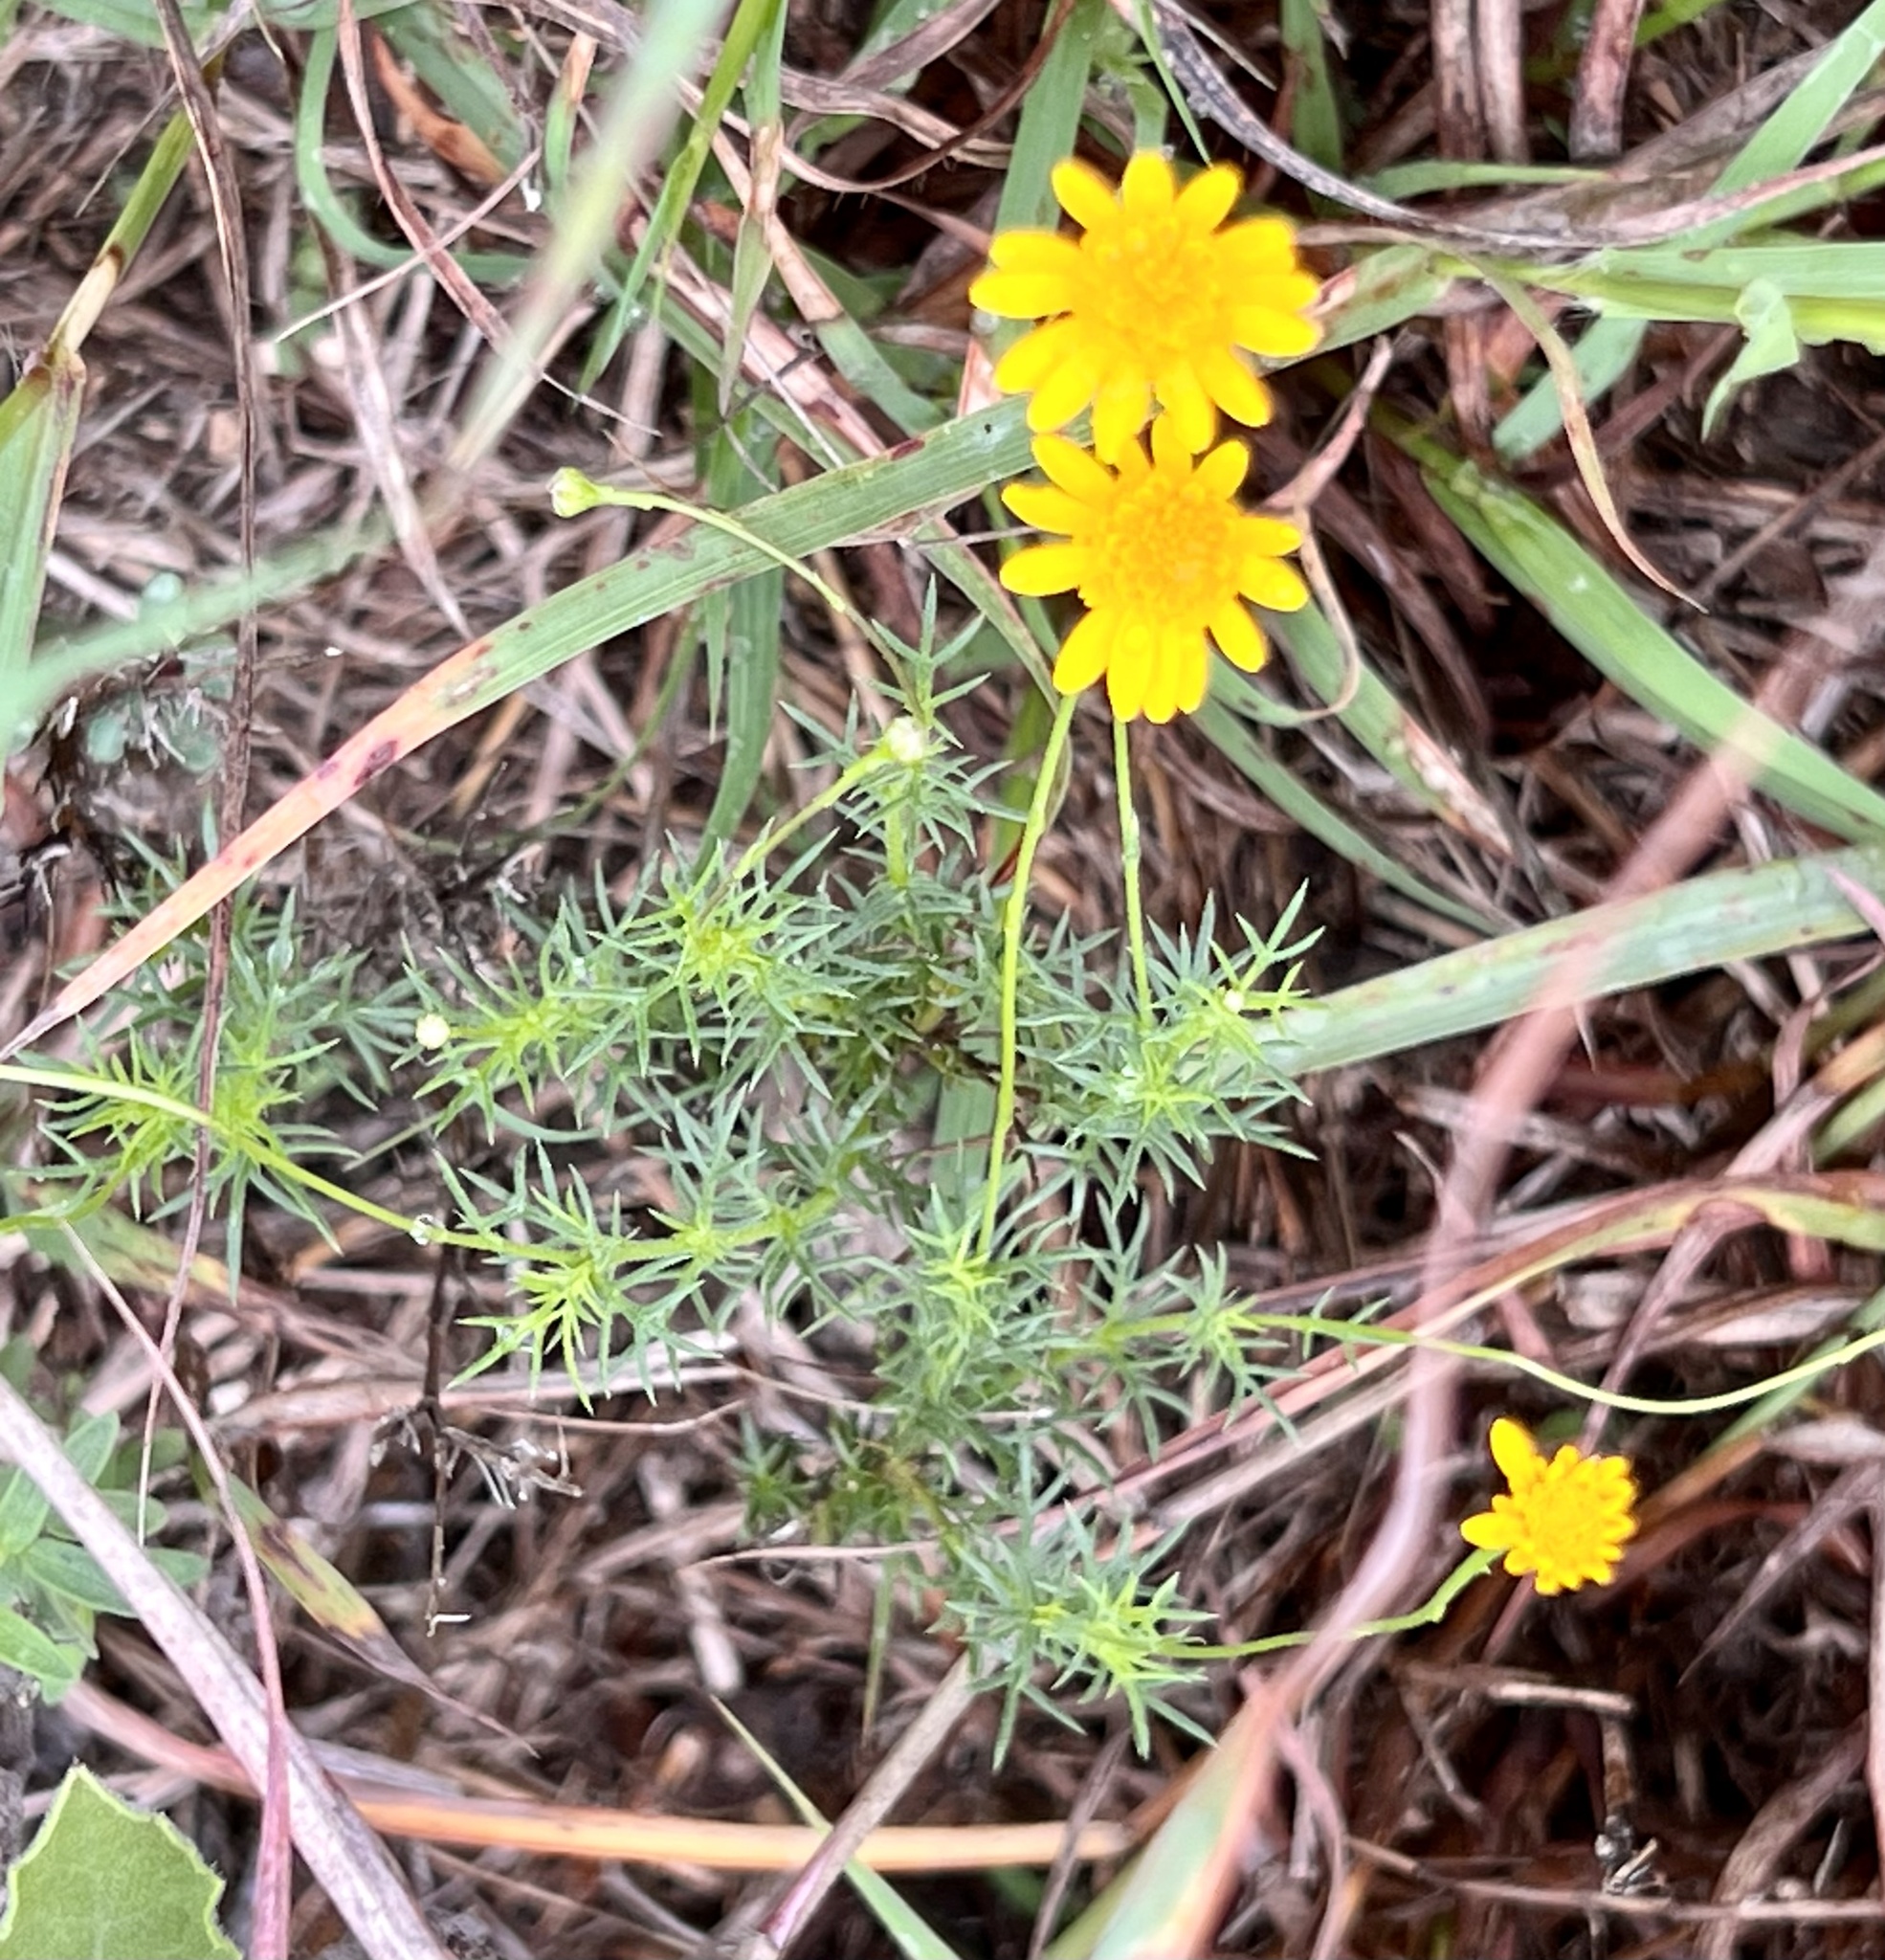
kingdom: Plantae
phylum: Tracheophyta
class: Magnoliopsida
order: Asterales
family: Asteraceae
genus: Thymophylla
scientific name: Thymophylla tenuiloba
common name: Dahlberg's daisy
